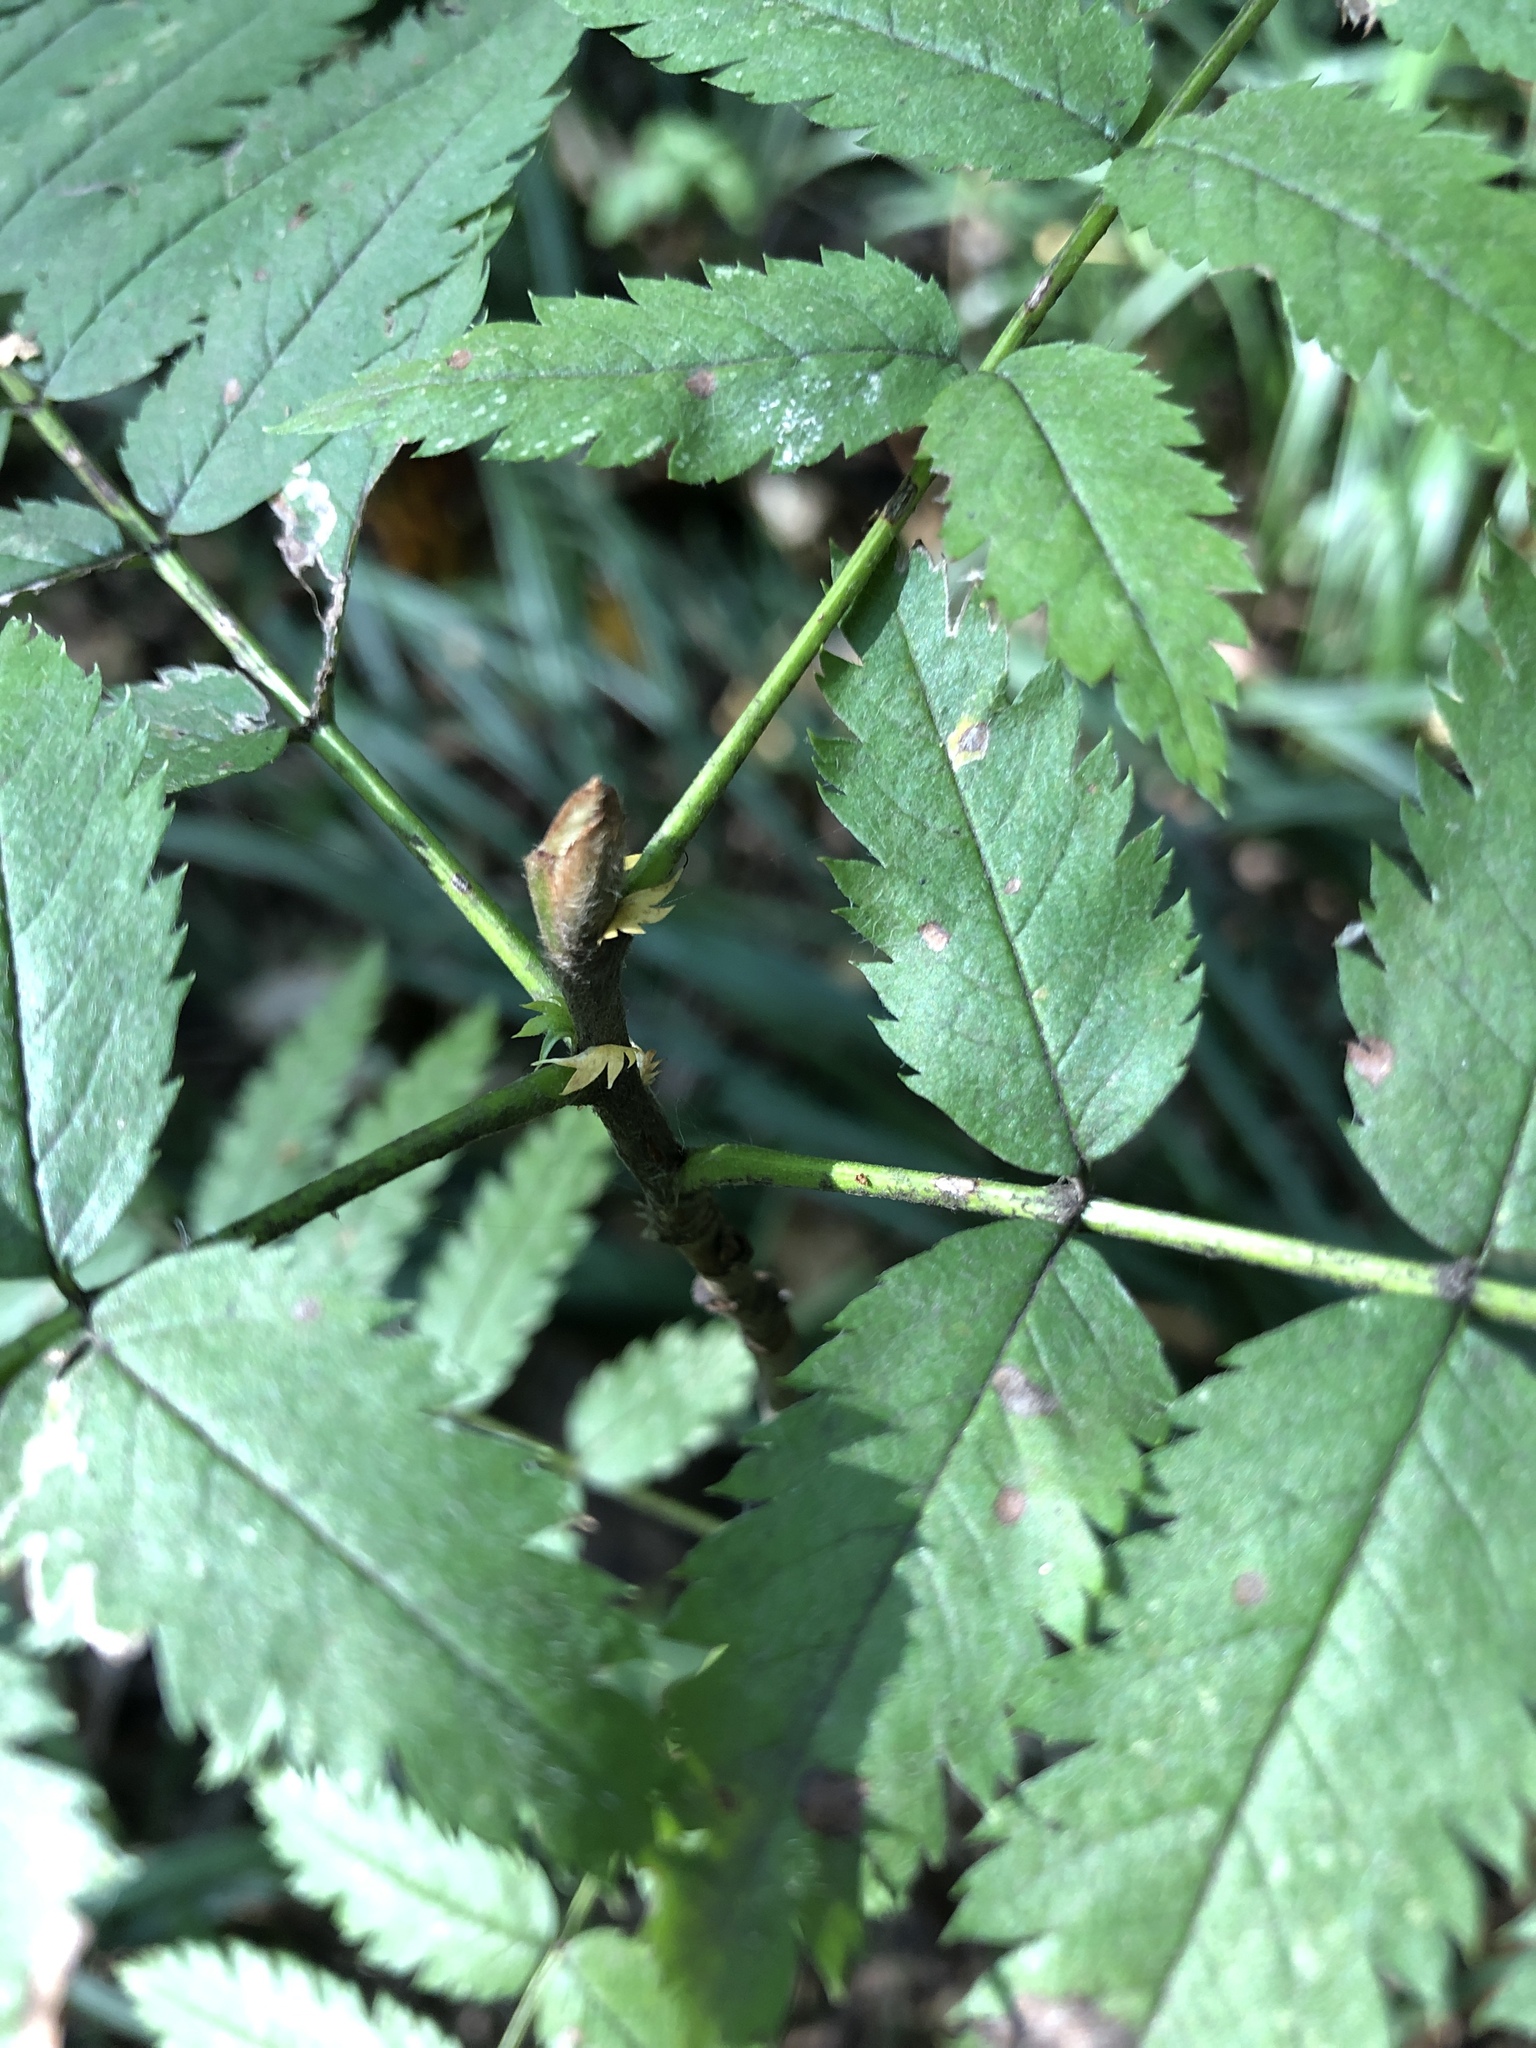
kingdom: Plantae
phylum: Tracheophyta
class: Magnoliopsida
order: Rosales
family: Rosaceae
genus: Sorbus
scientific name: Sorbus aucuparia
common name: Rowan
